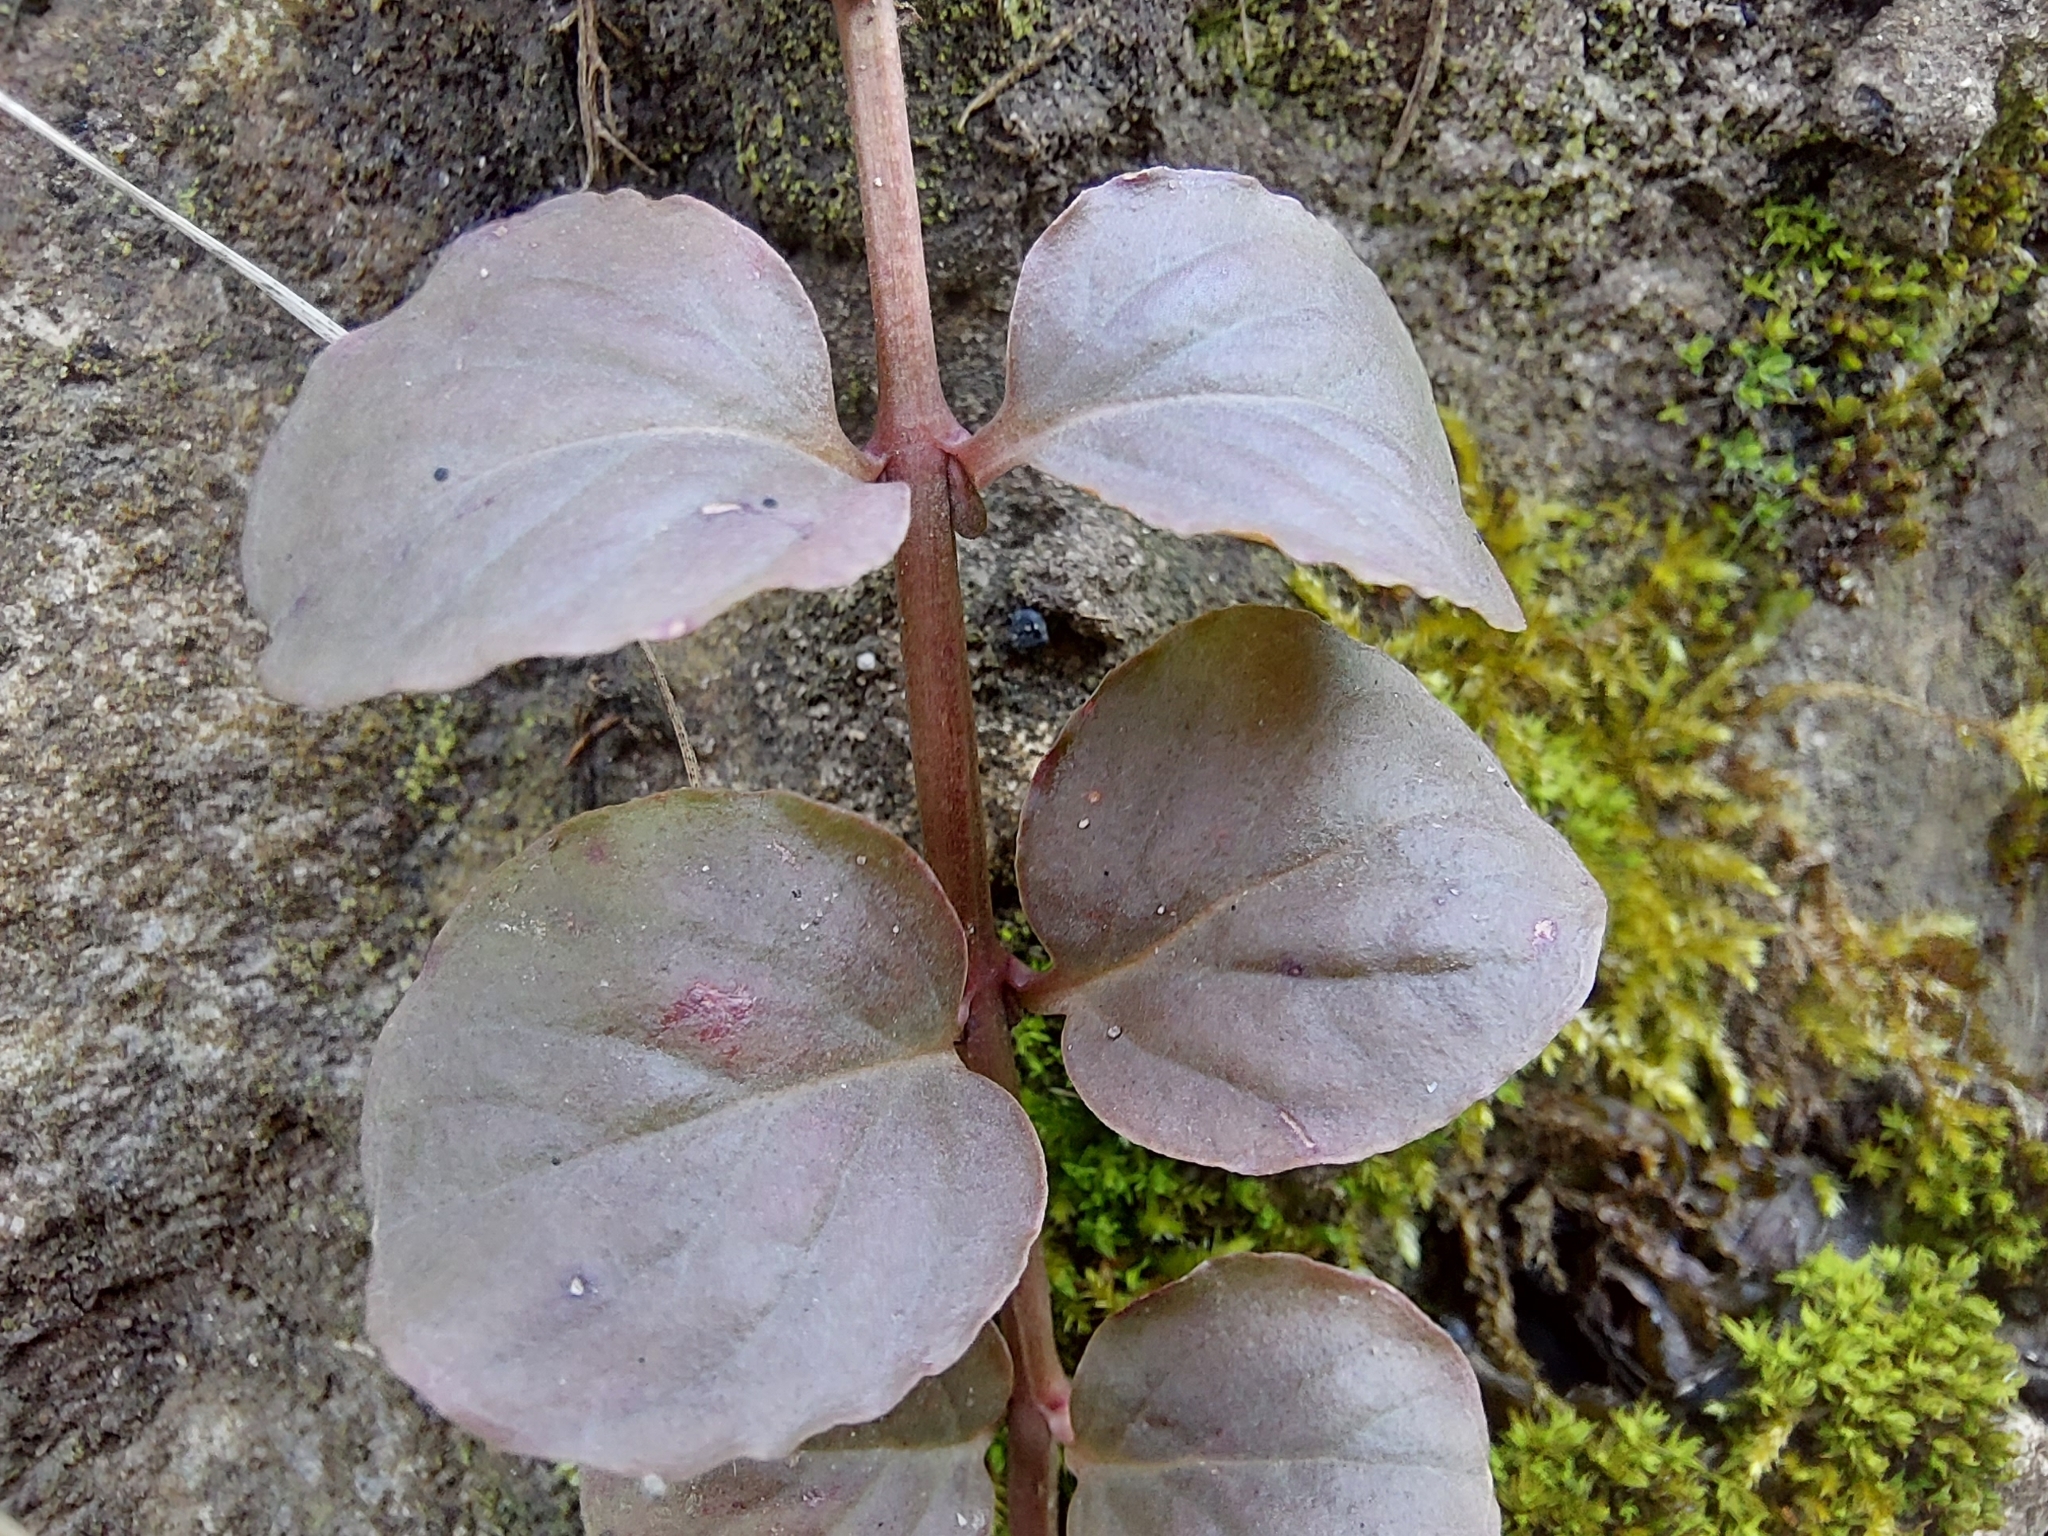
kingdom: Plantae
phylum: Tracheophyta
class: Magnoliopsida
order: Ericales
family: Primulaceae
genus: Lysimachia
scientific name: Lysimachia nummularia
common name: Moneywort
